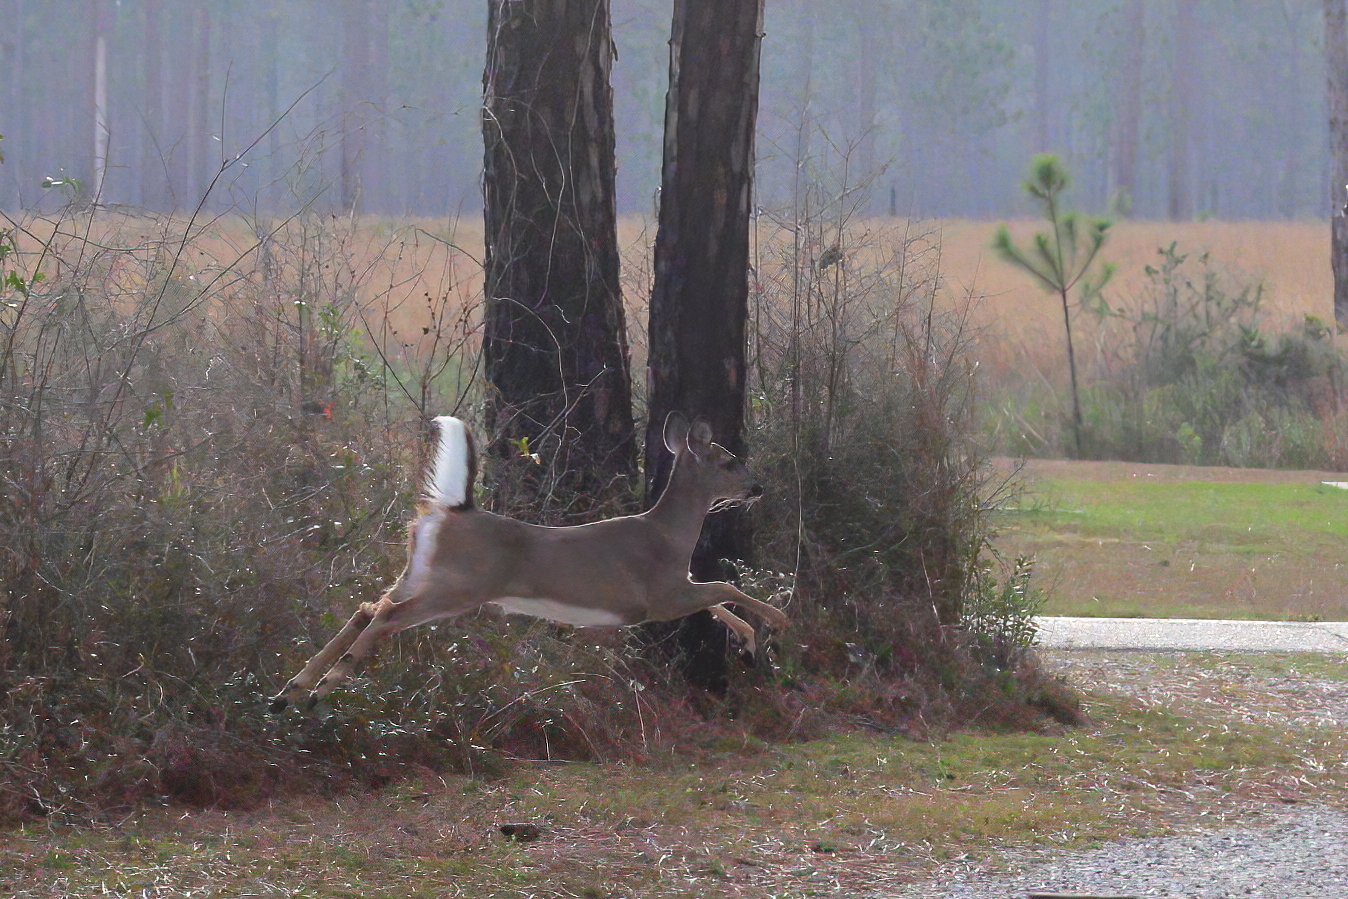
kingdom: Animalia
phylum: Chordata
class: Mammalia
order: Artiodactyla
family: Cervidae
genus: Odocoileus
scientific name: Odocoileus virginianus
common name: White-tailed deer
